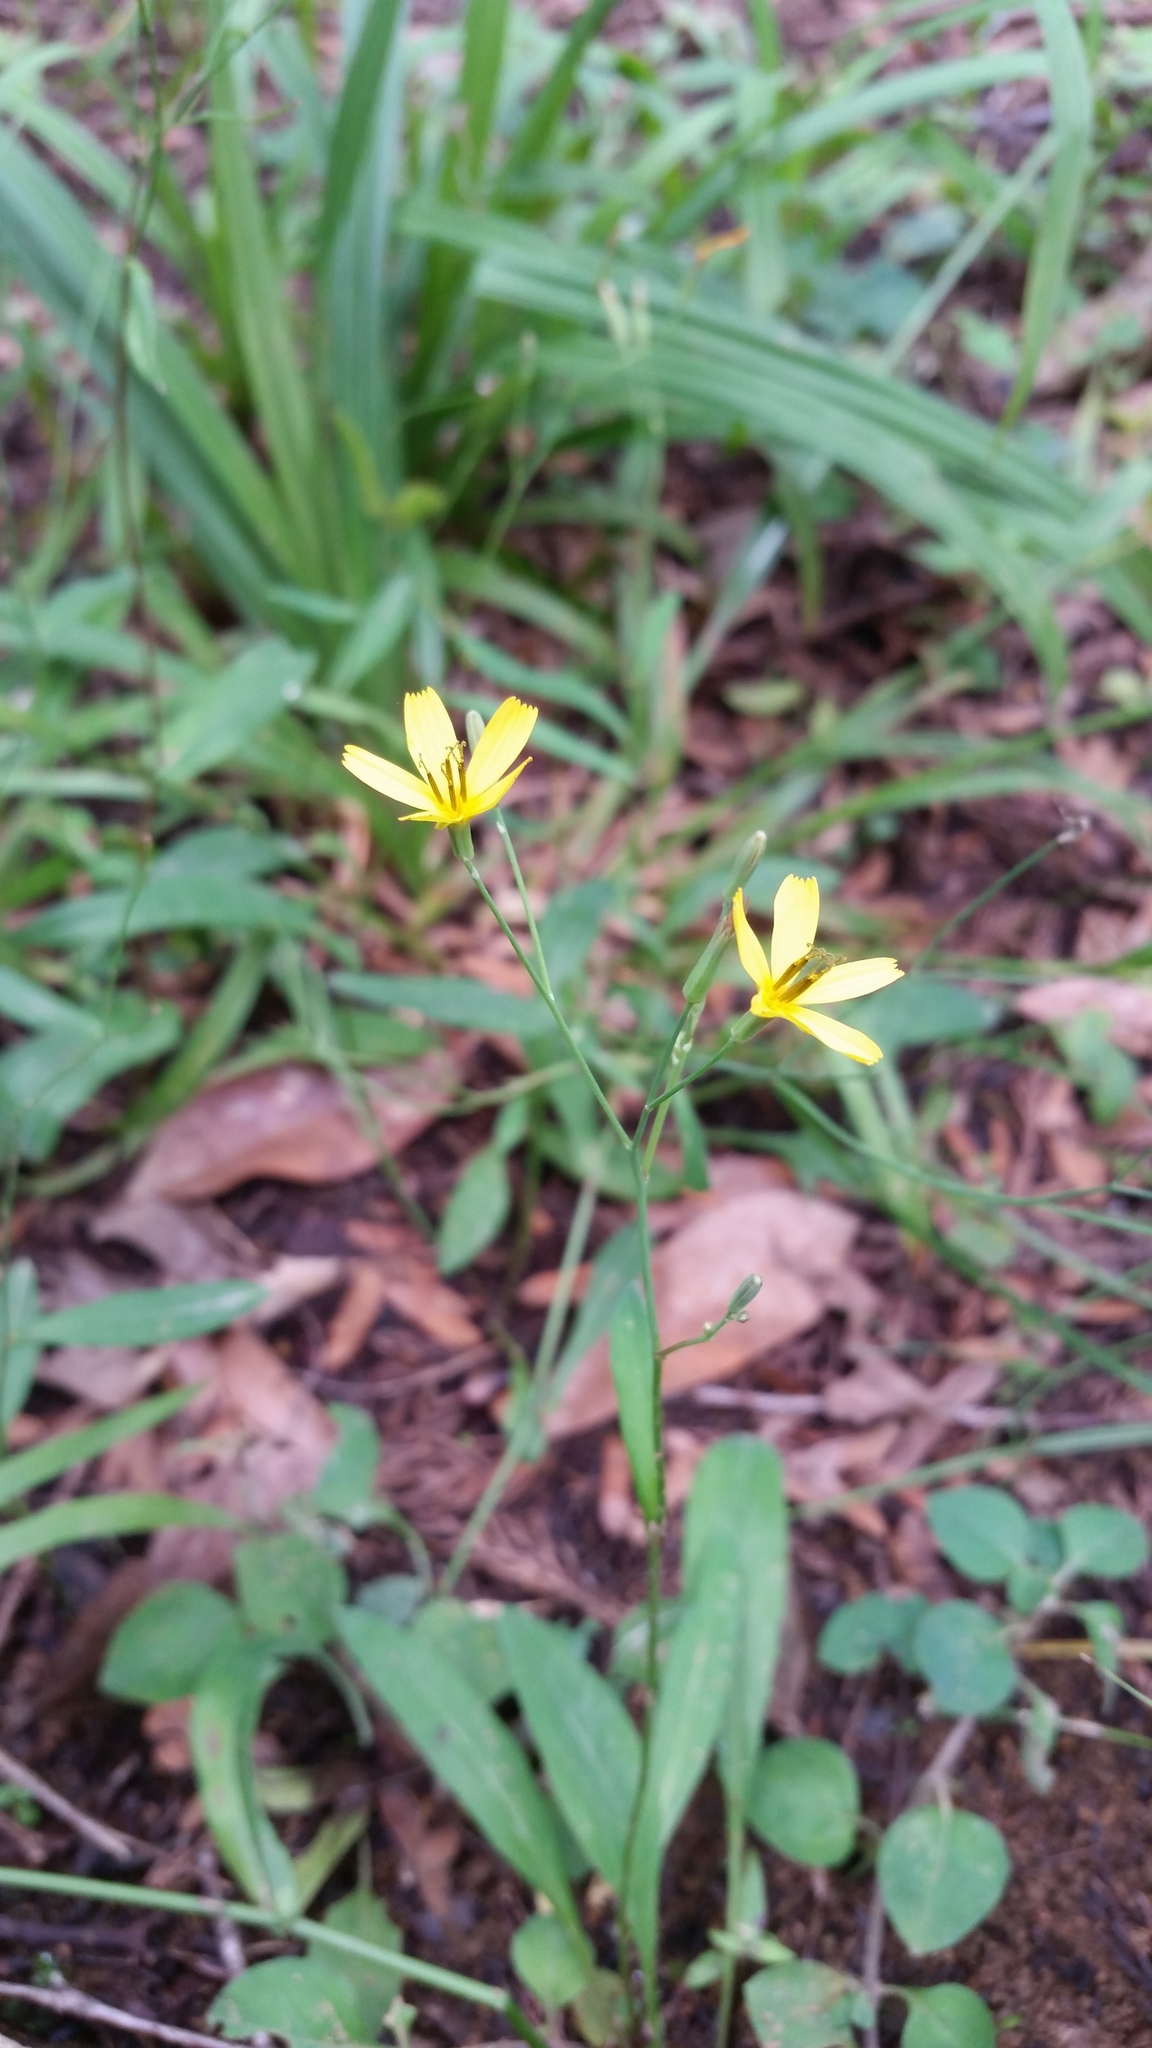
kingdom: Plantae
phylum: Tracheophyta
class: Magnoliopsida
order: Asterales
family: Asteraceae
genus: Ixeridium
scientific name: Ixeridium dentatum
